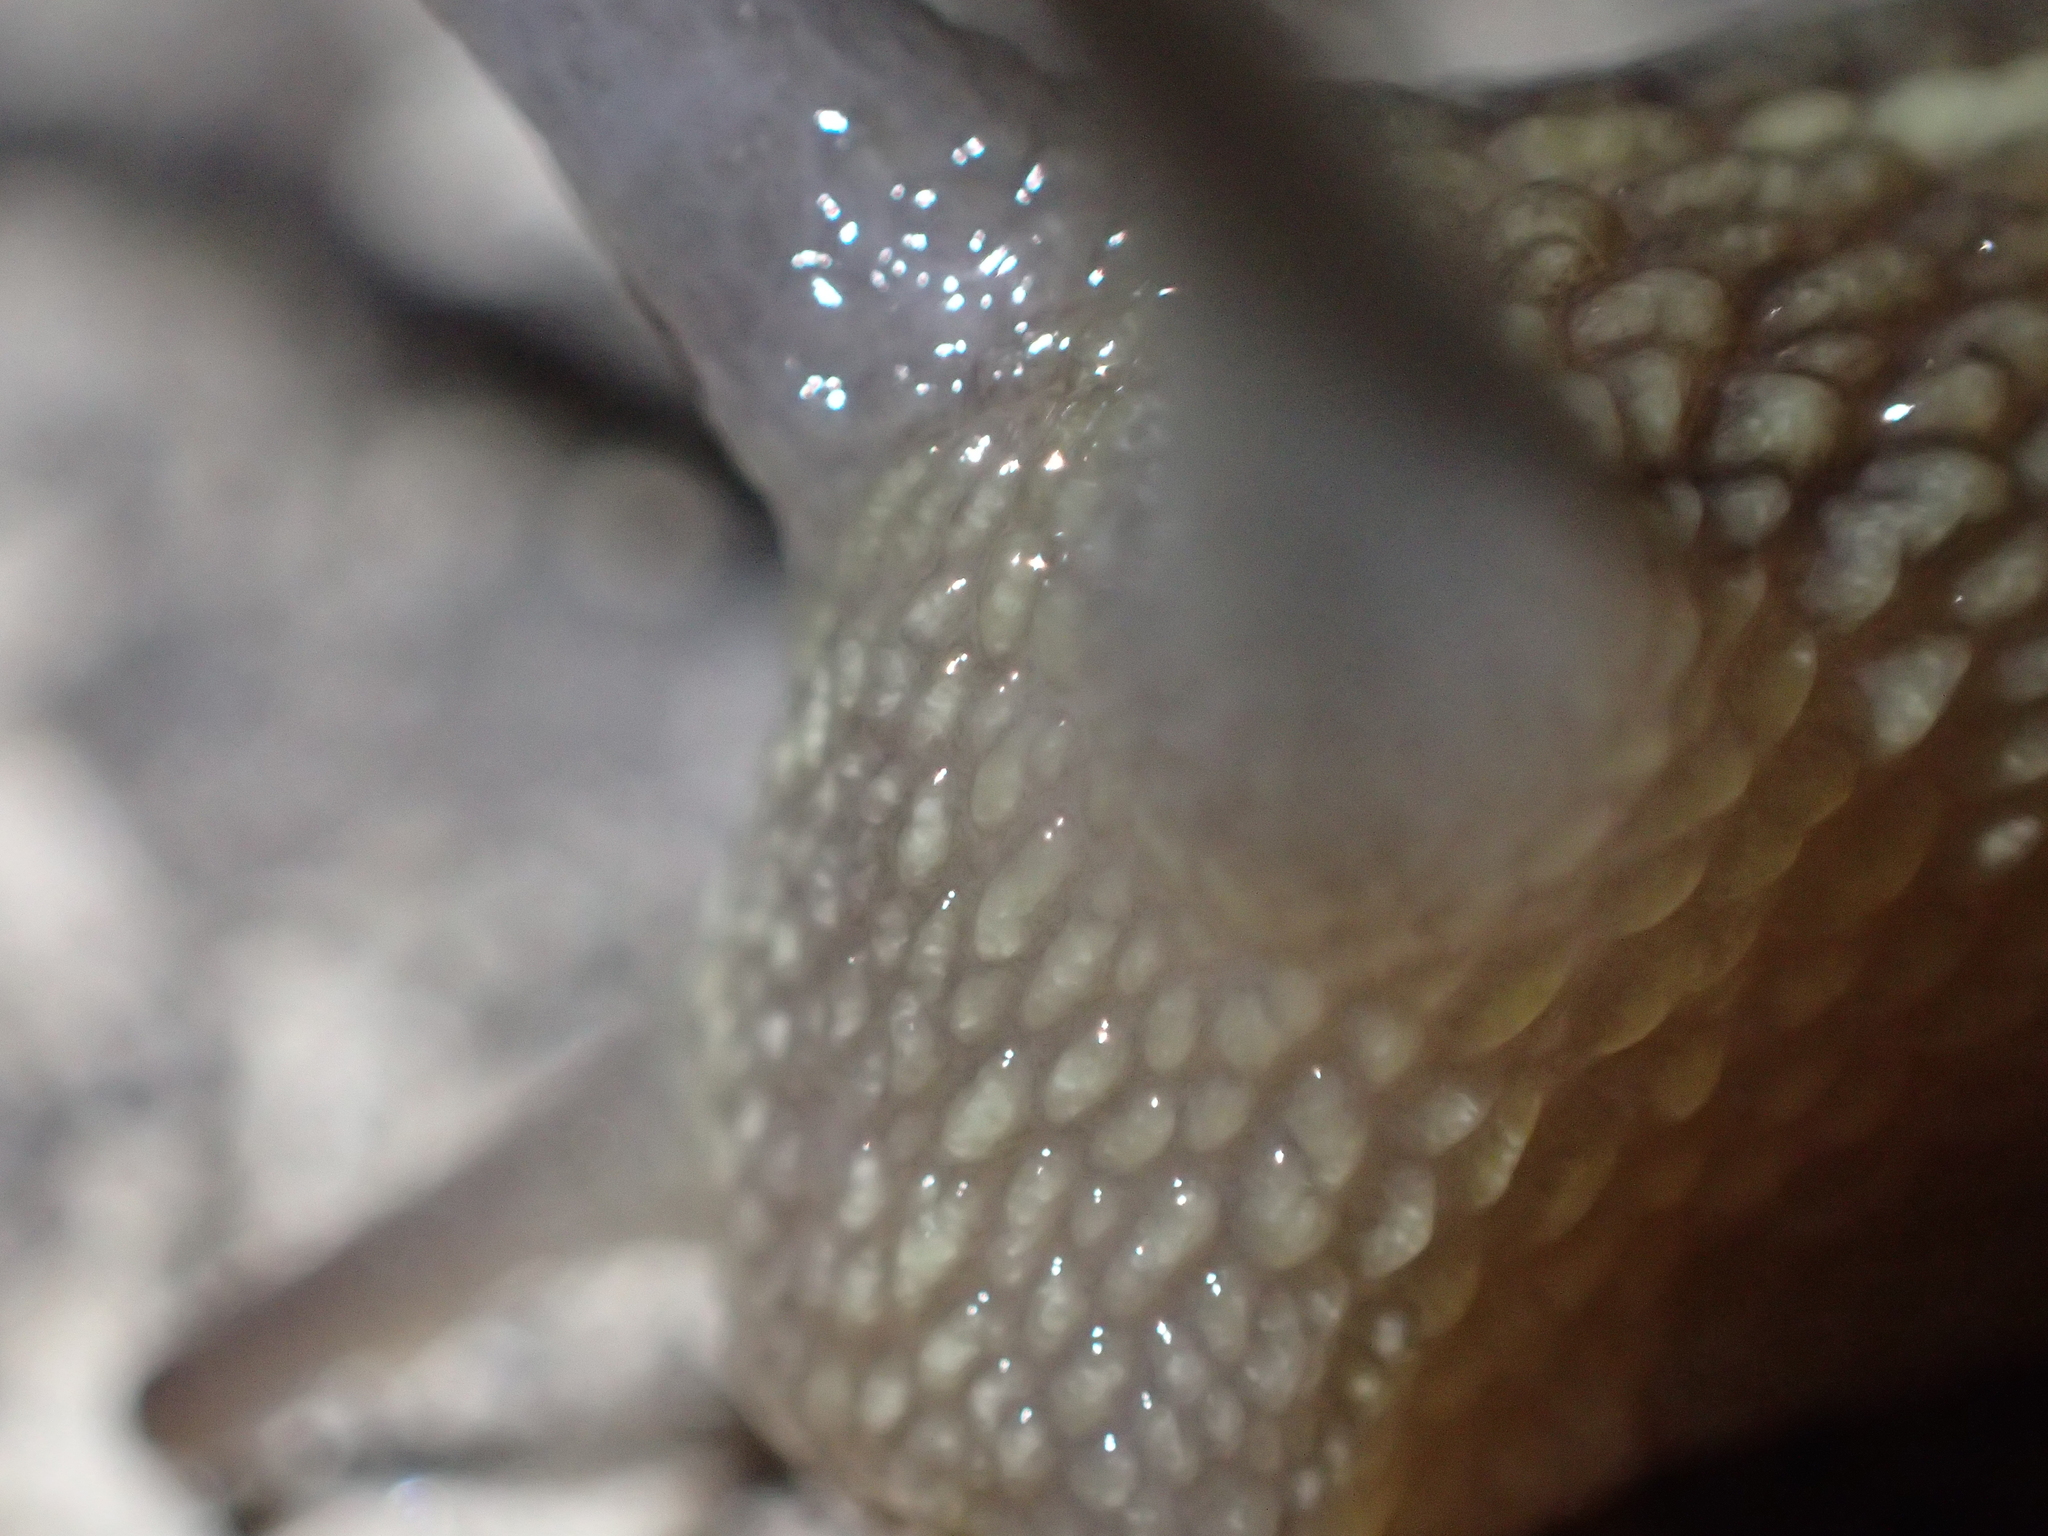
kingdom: Animalia
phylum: Mollusca
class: Gastropoda
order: Stylommatophora
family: Helicidae
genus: Cornu
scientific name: Cornu aspersum
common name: Brown garden snail
